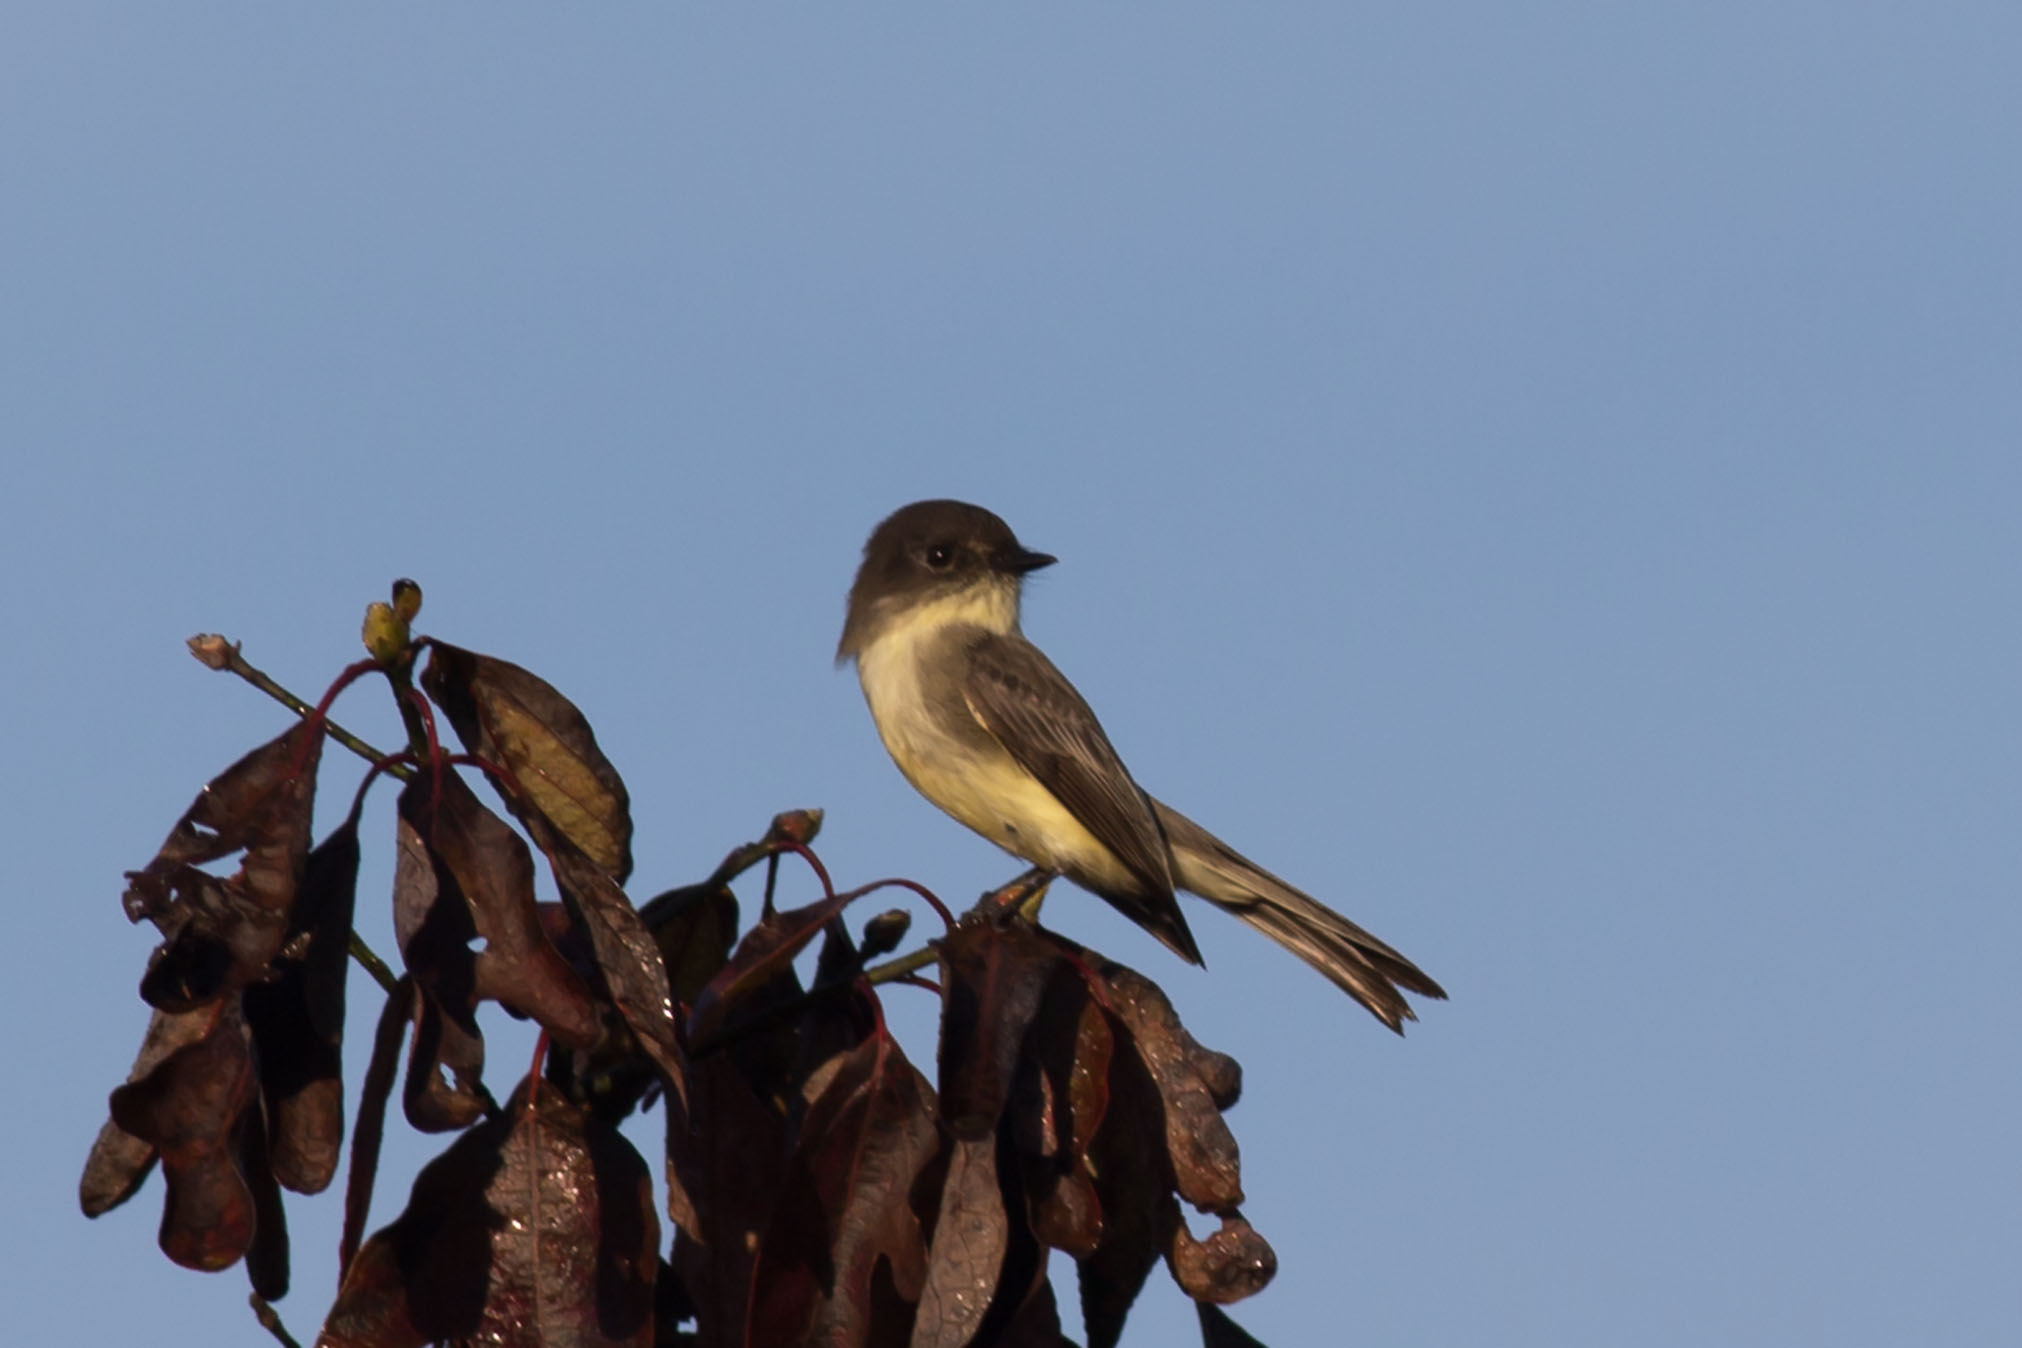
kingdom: Animalia
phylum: Chordata
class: Aves
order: Passeriformes
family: Tyrannidae
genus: Sayornis
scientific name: Sayornis phoebe
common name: Eastern phoebe
